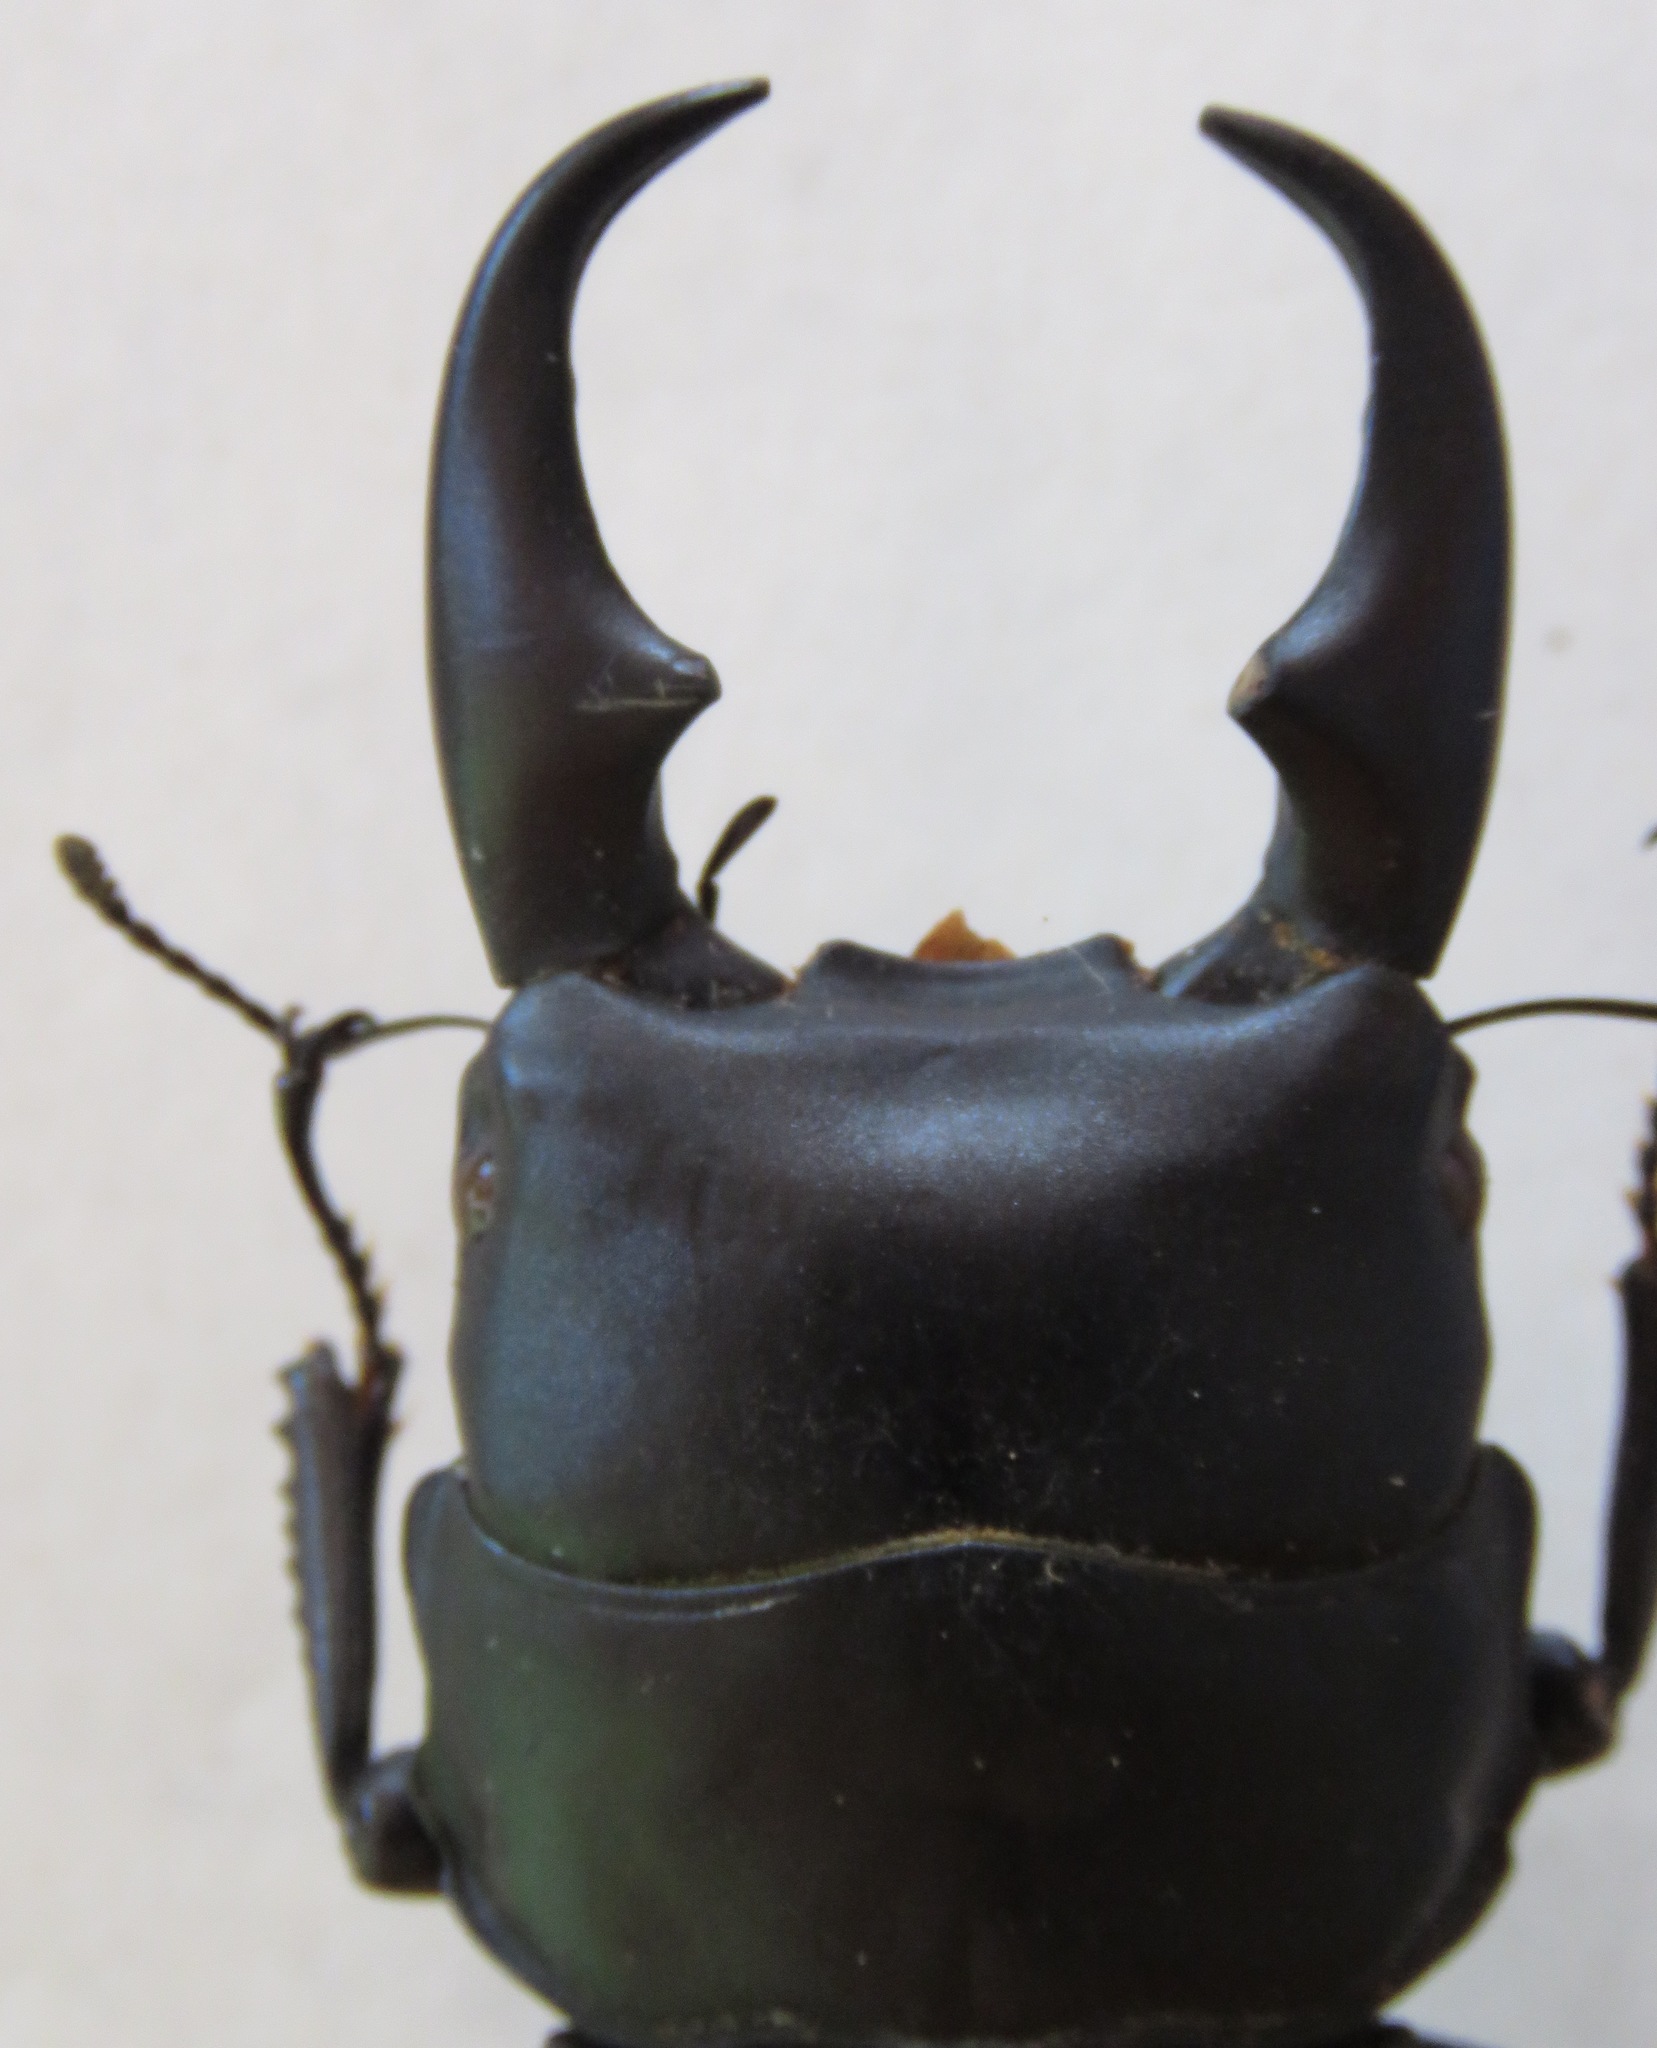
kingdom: Animalia
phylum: Arthropoda
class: Insecta
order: Coleoptera
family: Lucanidae
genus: Dorcus
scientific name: Dorcus meeki
